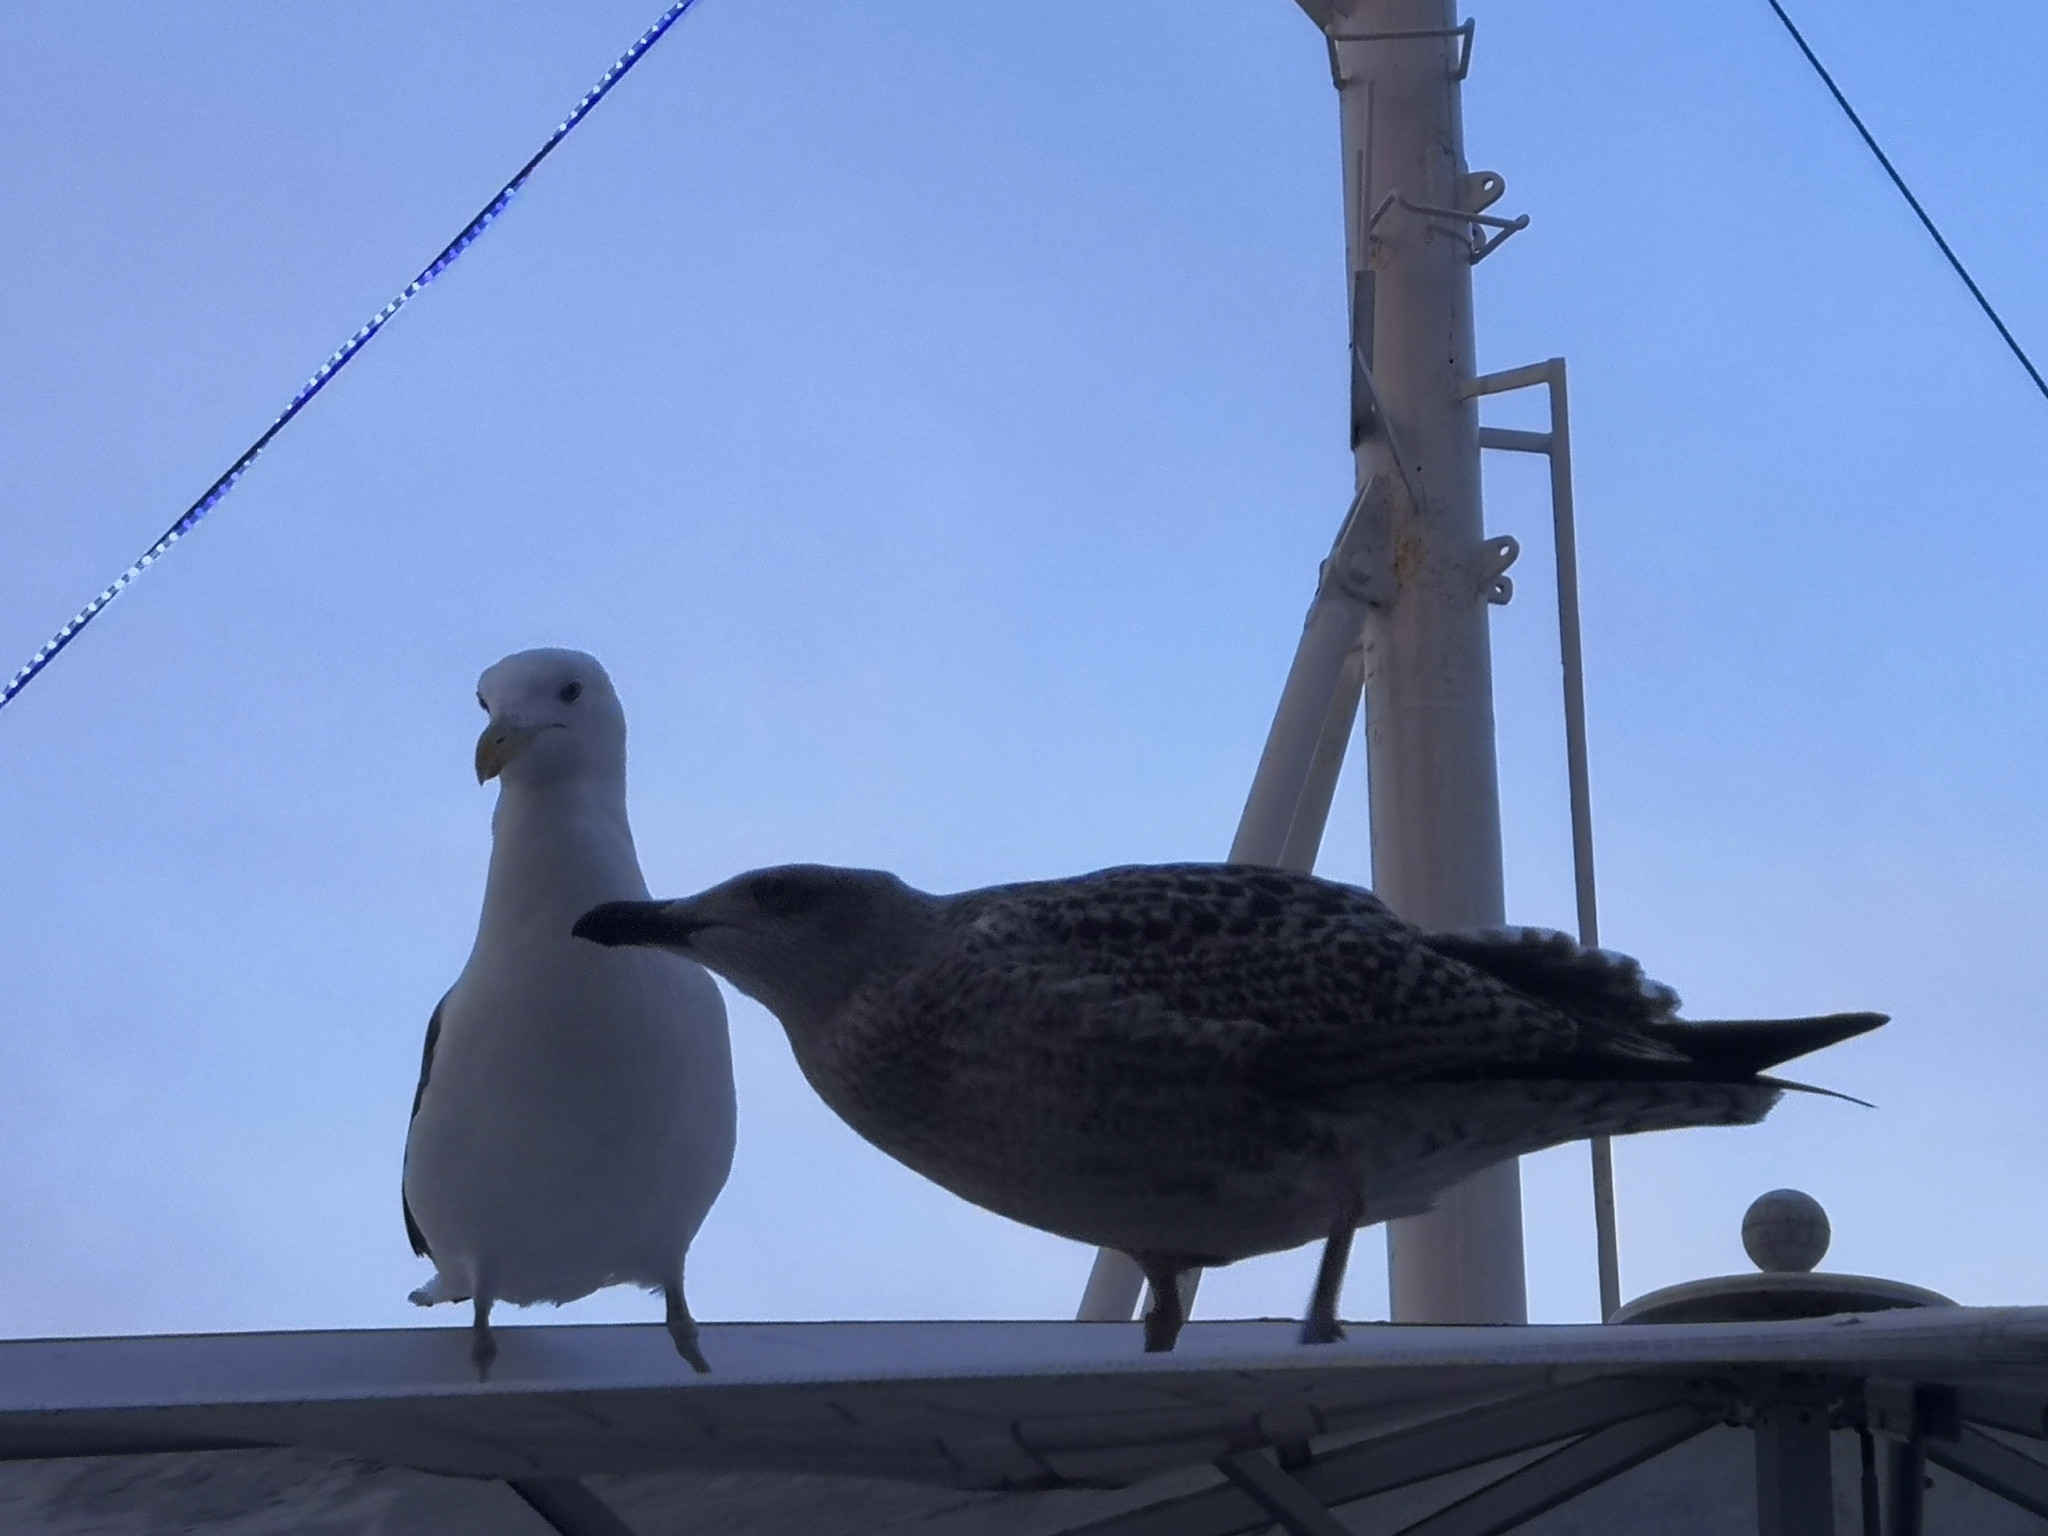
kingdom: Animalia
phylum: Chordata
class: Aves
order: Charadriiformes
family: Laridae
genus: Larus
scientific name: Larus argentatus
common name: Herring gull
